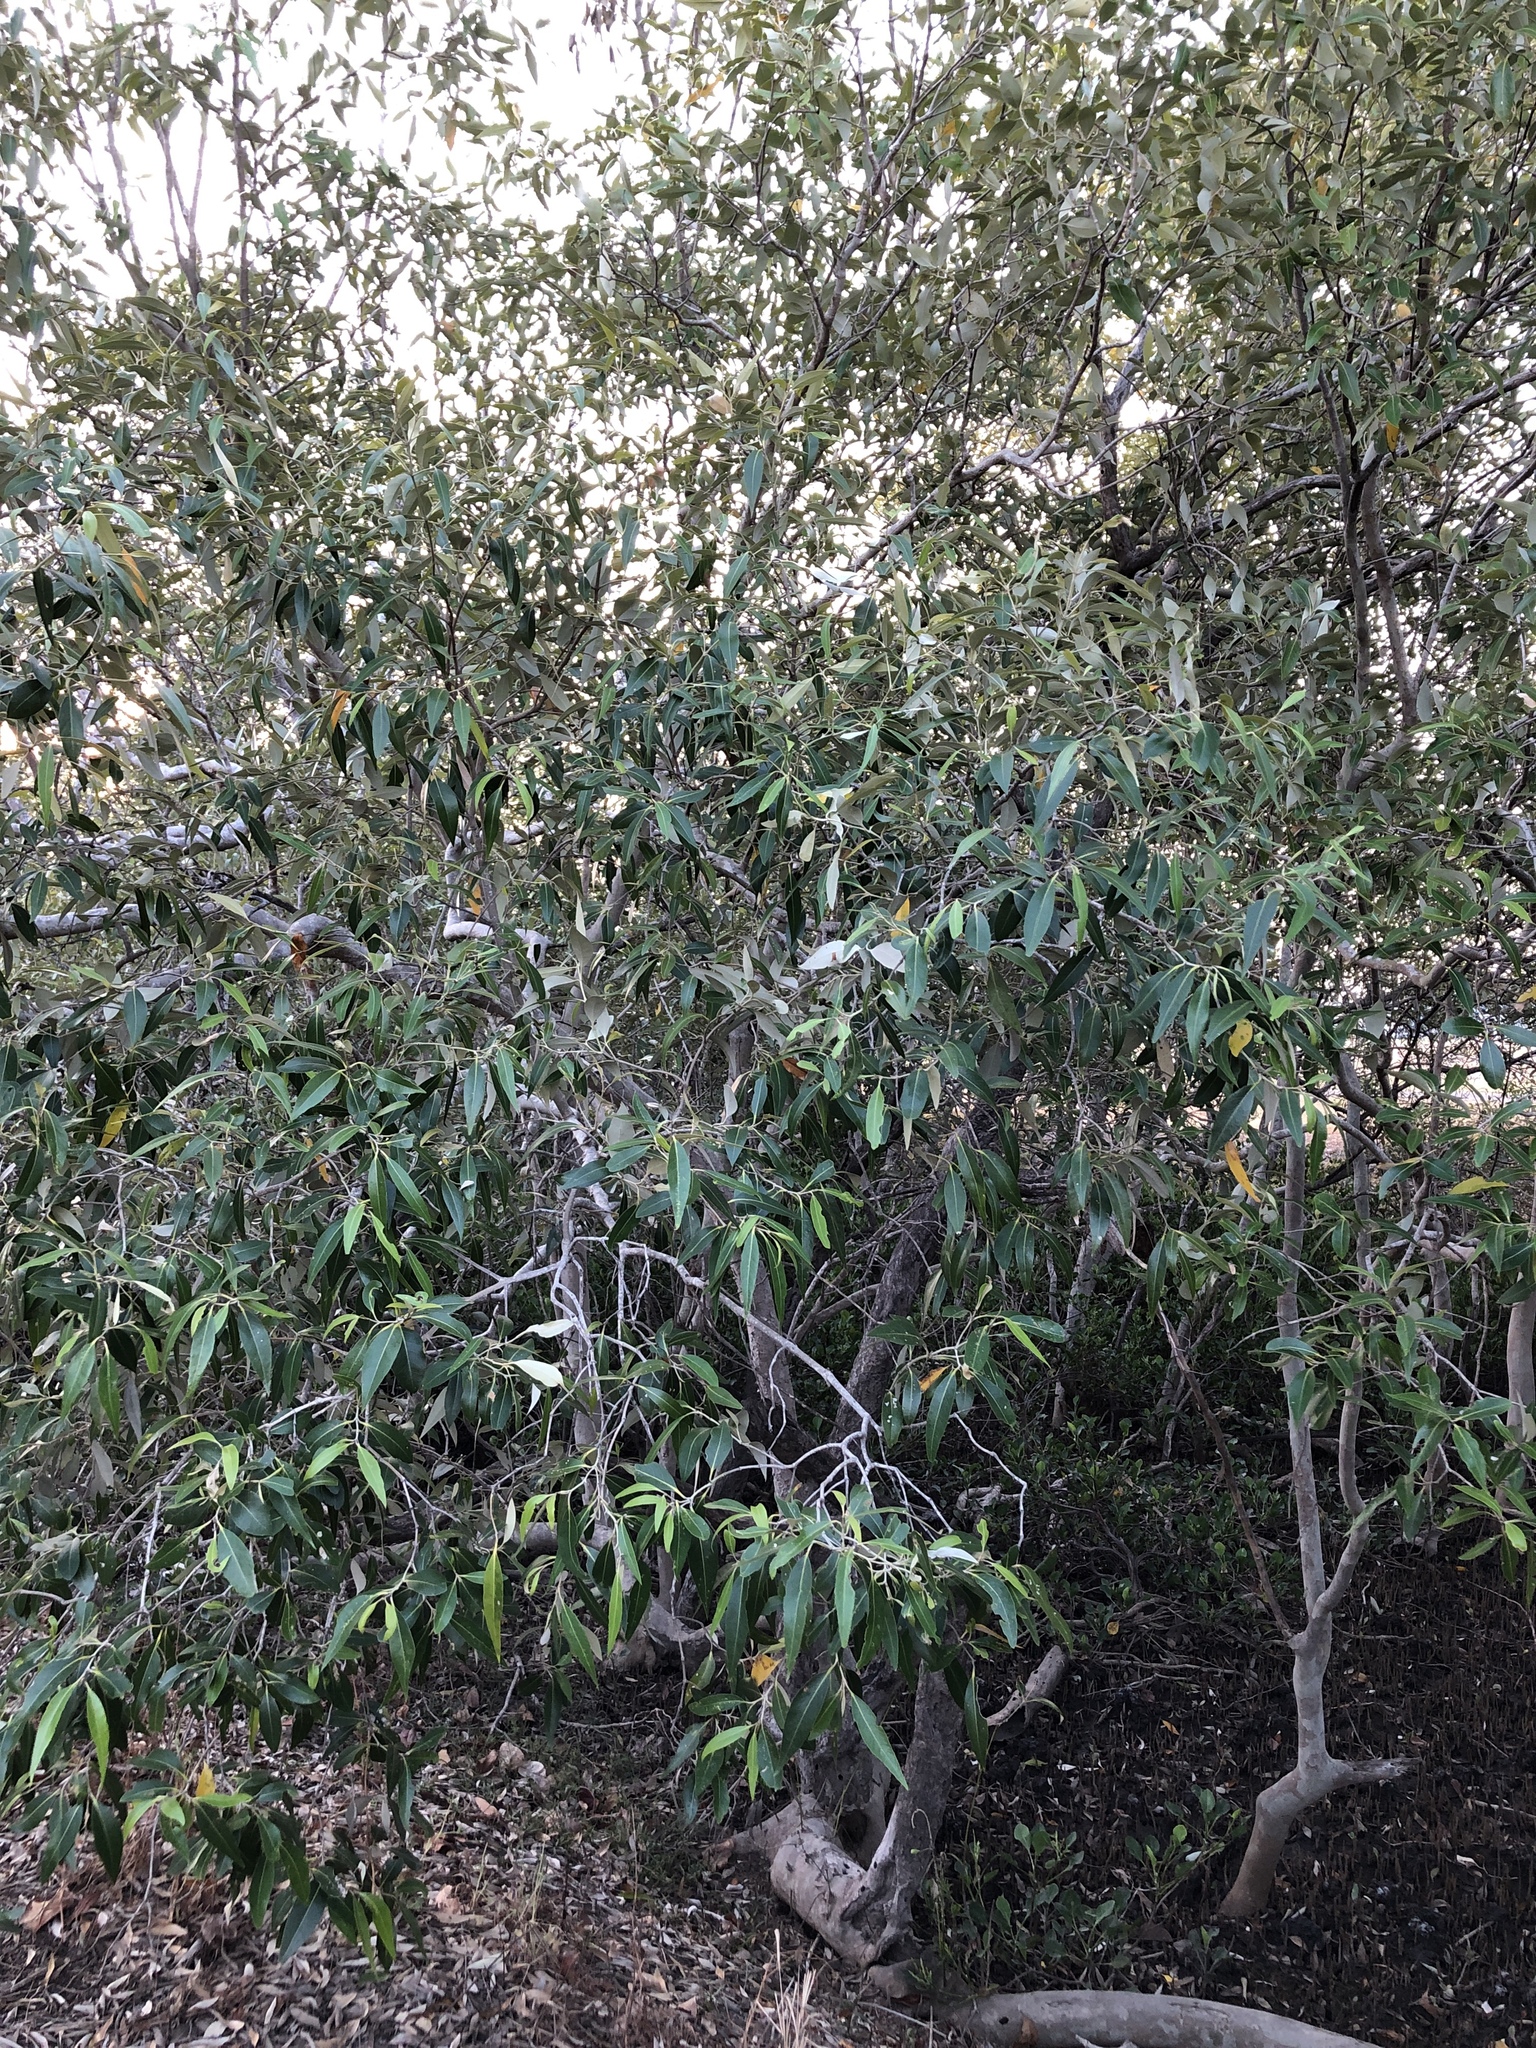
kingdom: Plantae
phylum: Tracheophyta
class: Magnoliopsida
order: Lamiales
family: Acanthaceae
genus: Avicennia
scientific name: Avicennia marina
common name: Gray mangrove
